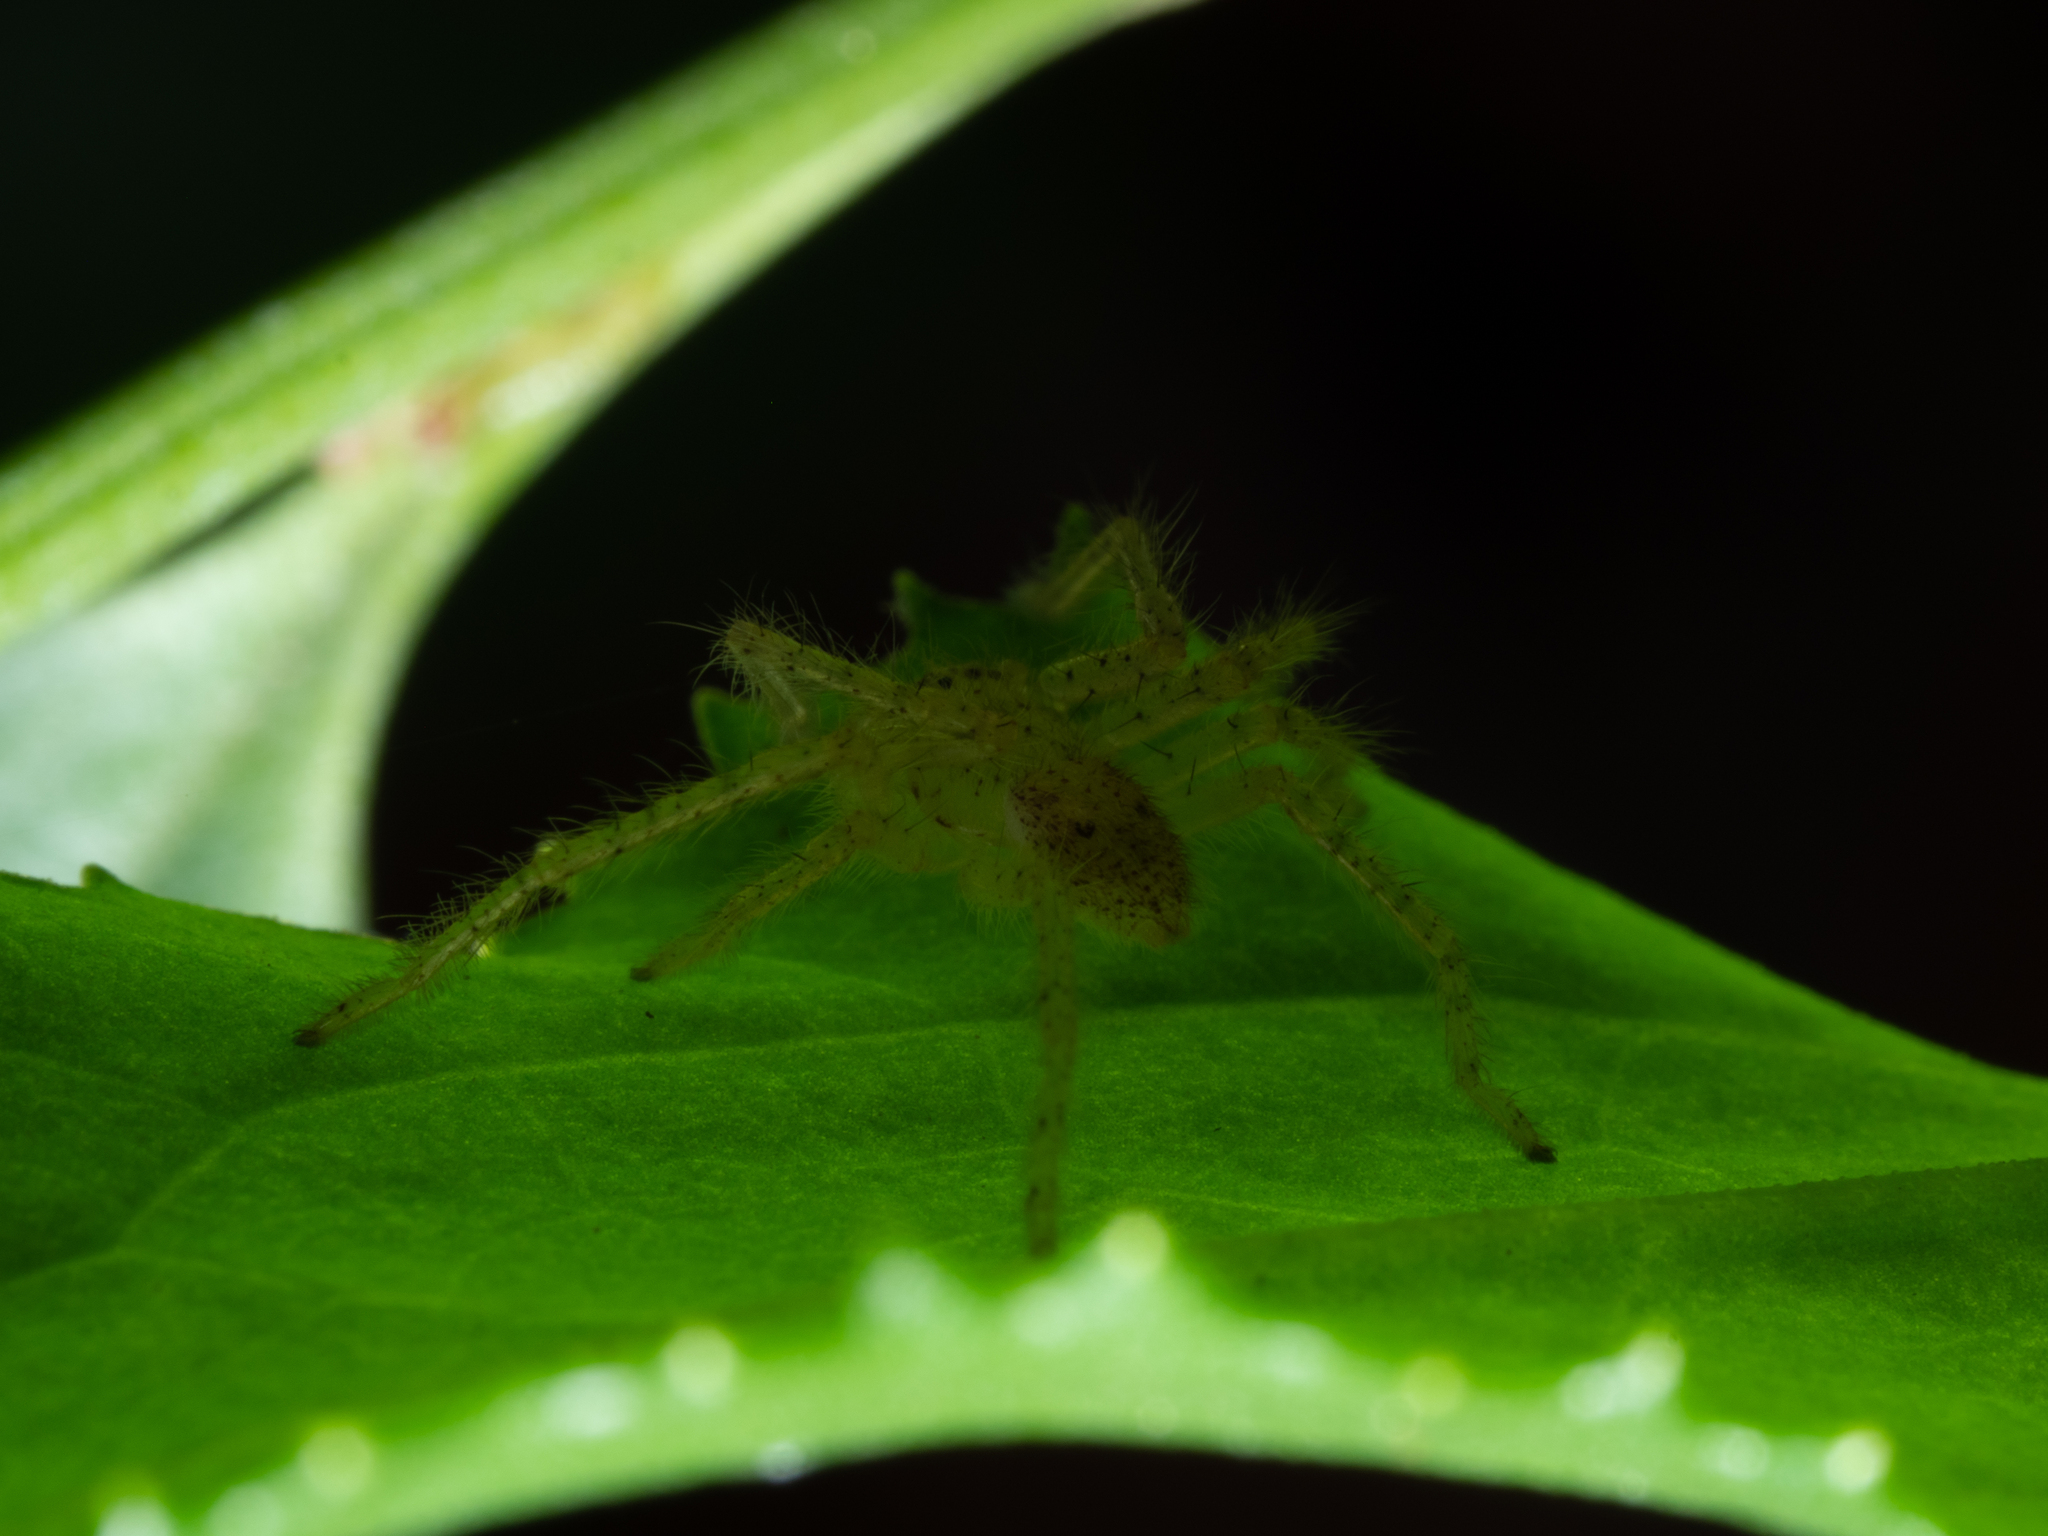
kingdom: Animalia
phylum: Arthropoda
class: Arachnida
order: Araneae
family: Sparassidae
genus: Neosparassus
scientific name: Neosparassus
